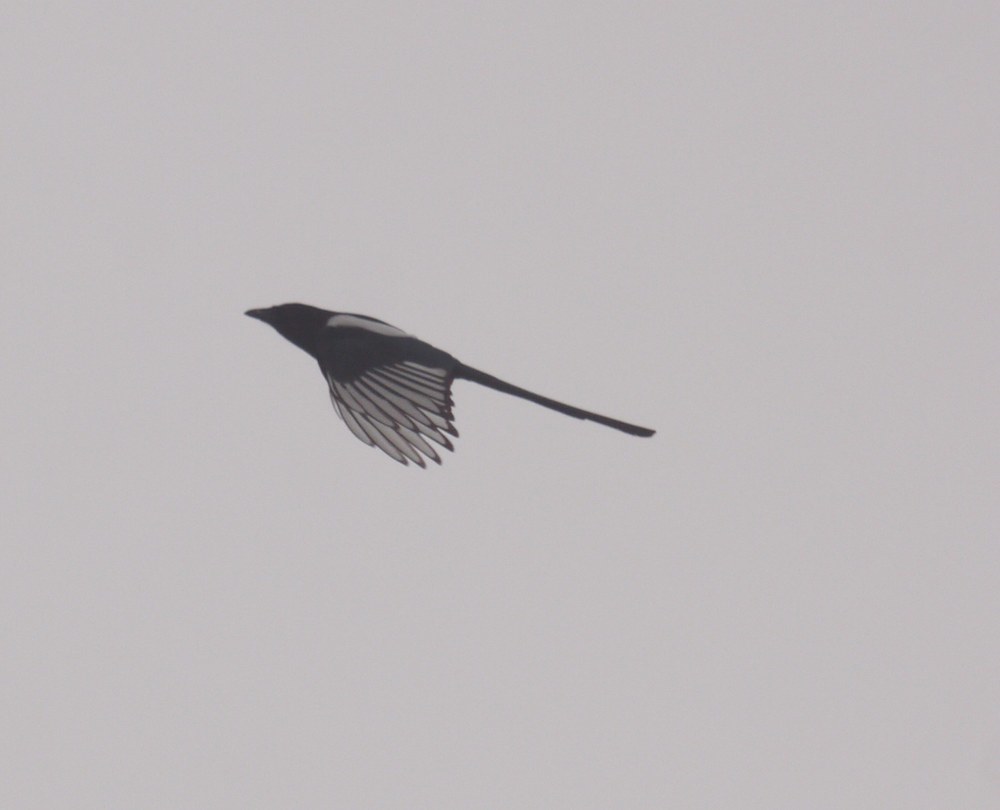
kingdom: Animalia
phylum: Chordata
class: Aves
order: Passeriformes
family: Corvidae
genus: Pica
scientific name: Pica pica
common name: Eurasian magpie
